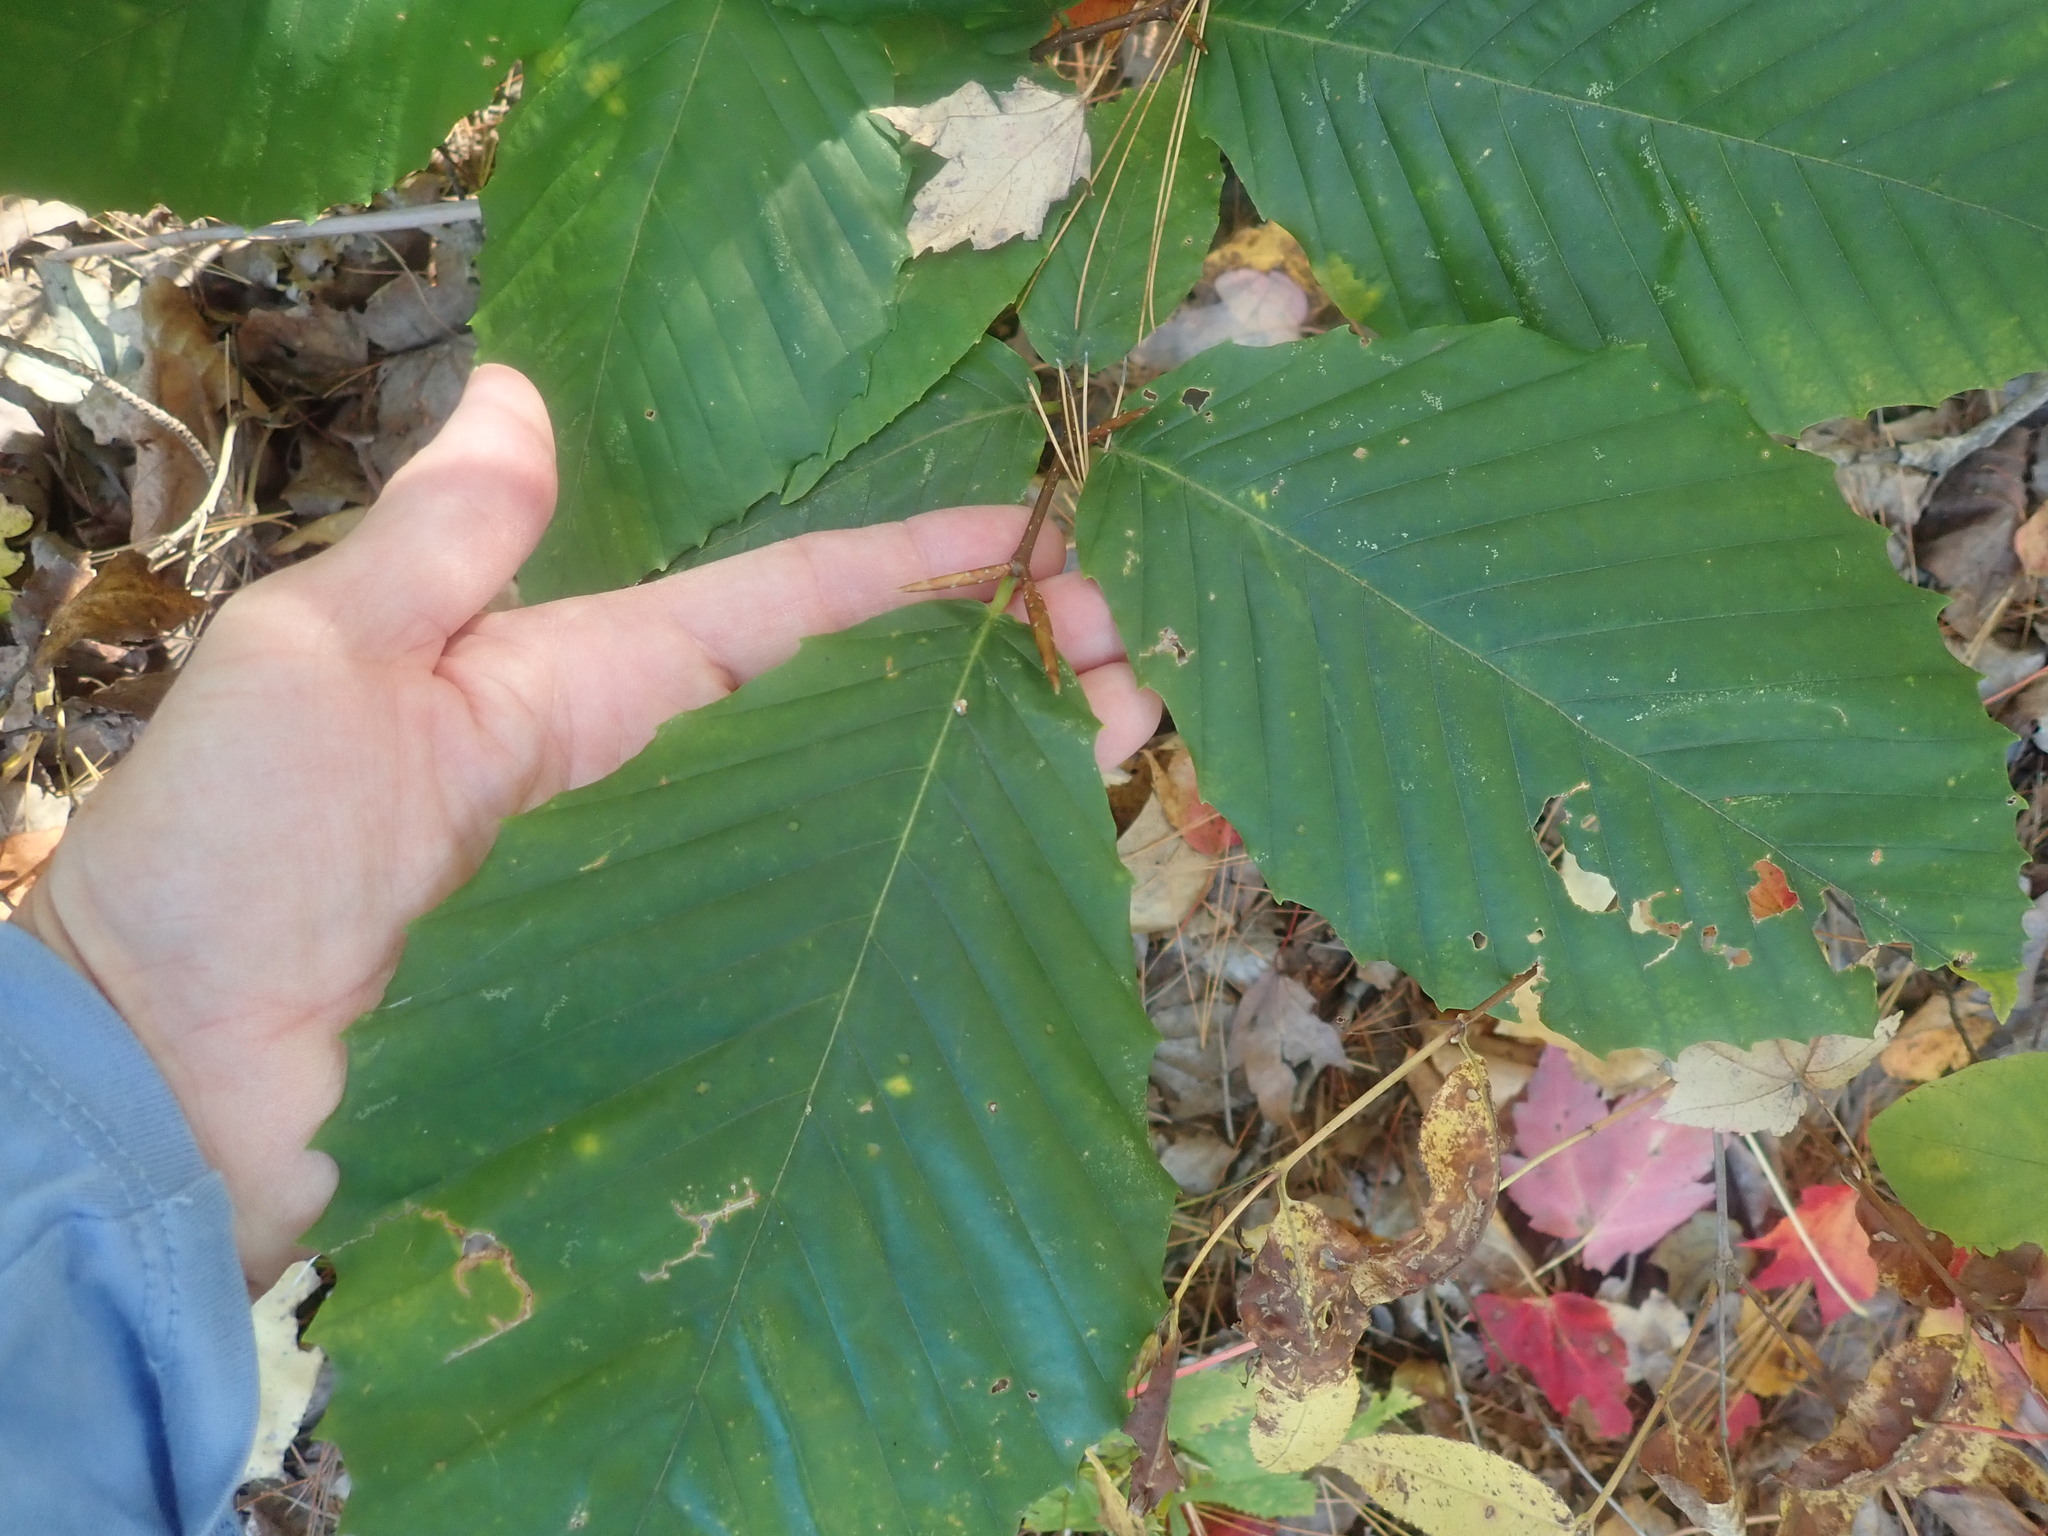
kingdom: Plantae
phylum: Tracheophyta
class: Magnoliopsida
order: Fagales
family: Fagaceae
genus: Fagus
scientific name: Fagus grandifolia
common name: American beech
